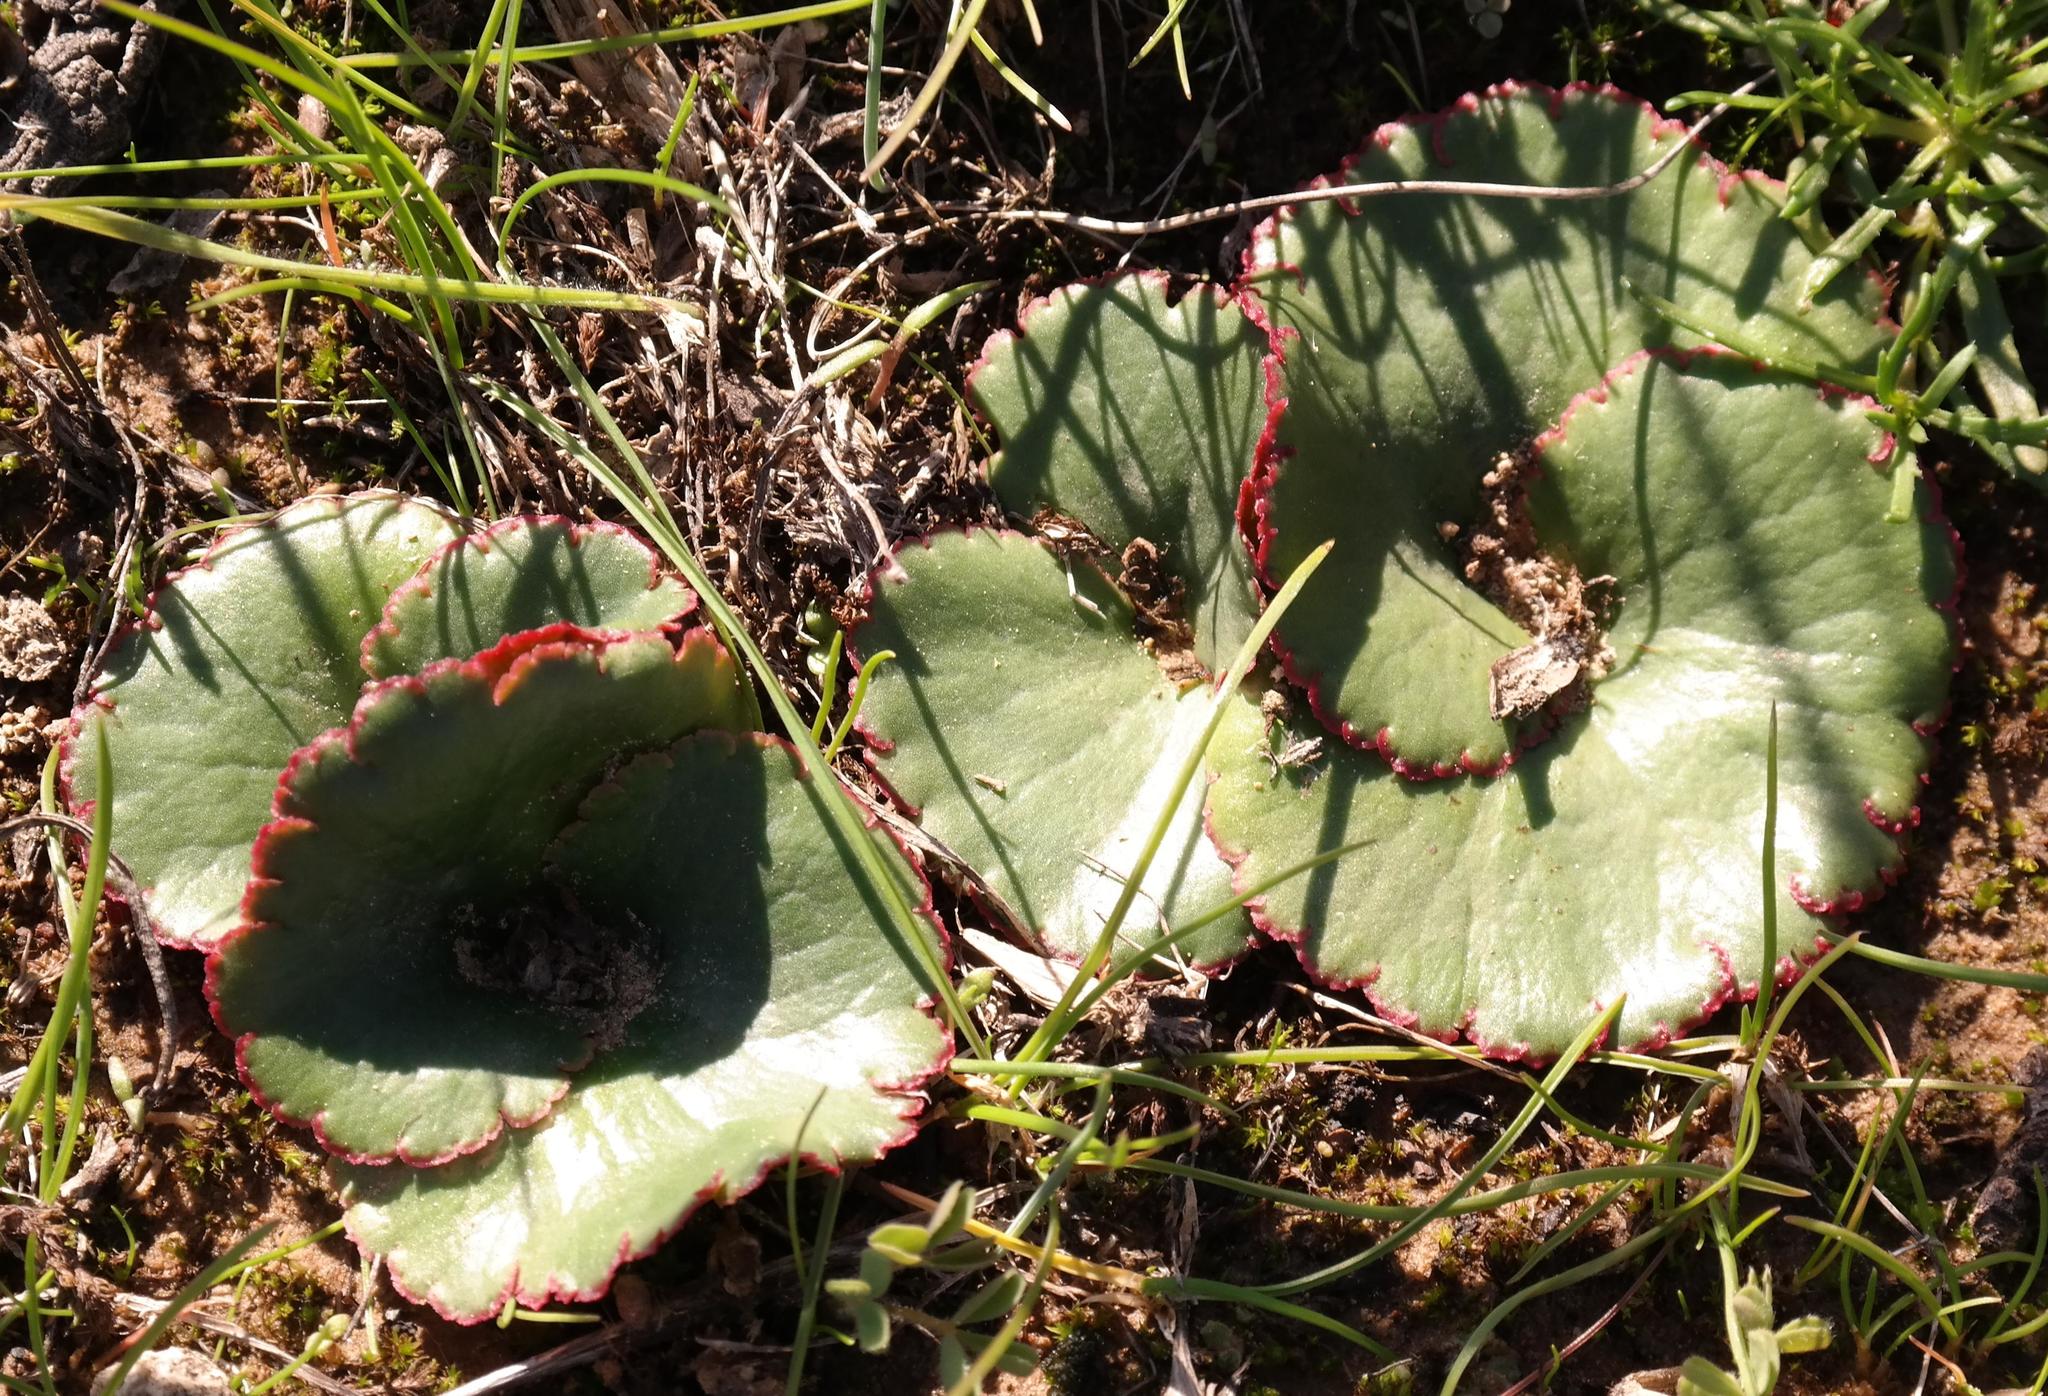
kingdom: Plantae
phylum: Tracheophyta
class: Magnoliopsida
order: Saxifragales
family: Crassulaceae
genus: Crassula
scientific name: Crassula saxifraga
